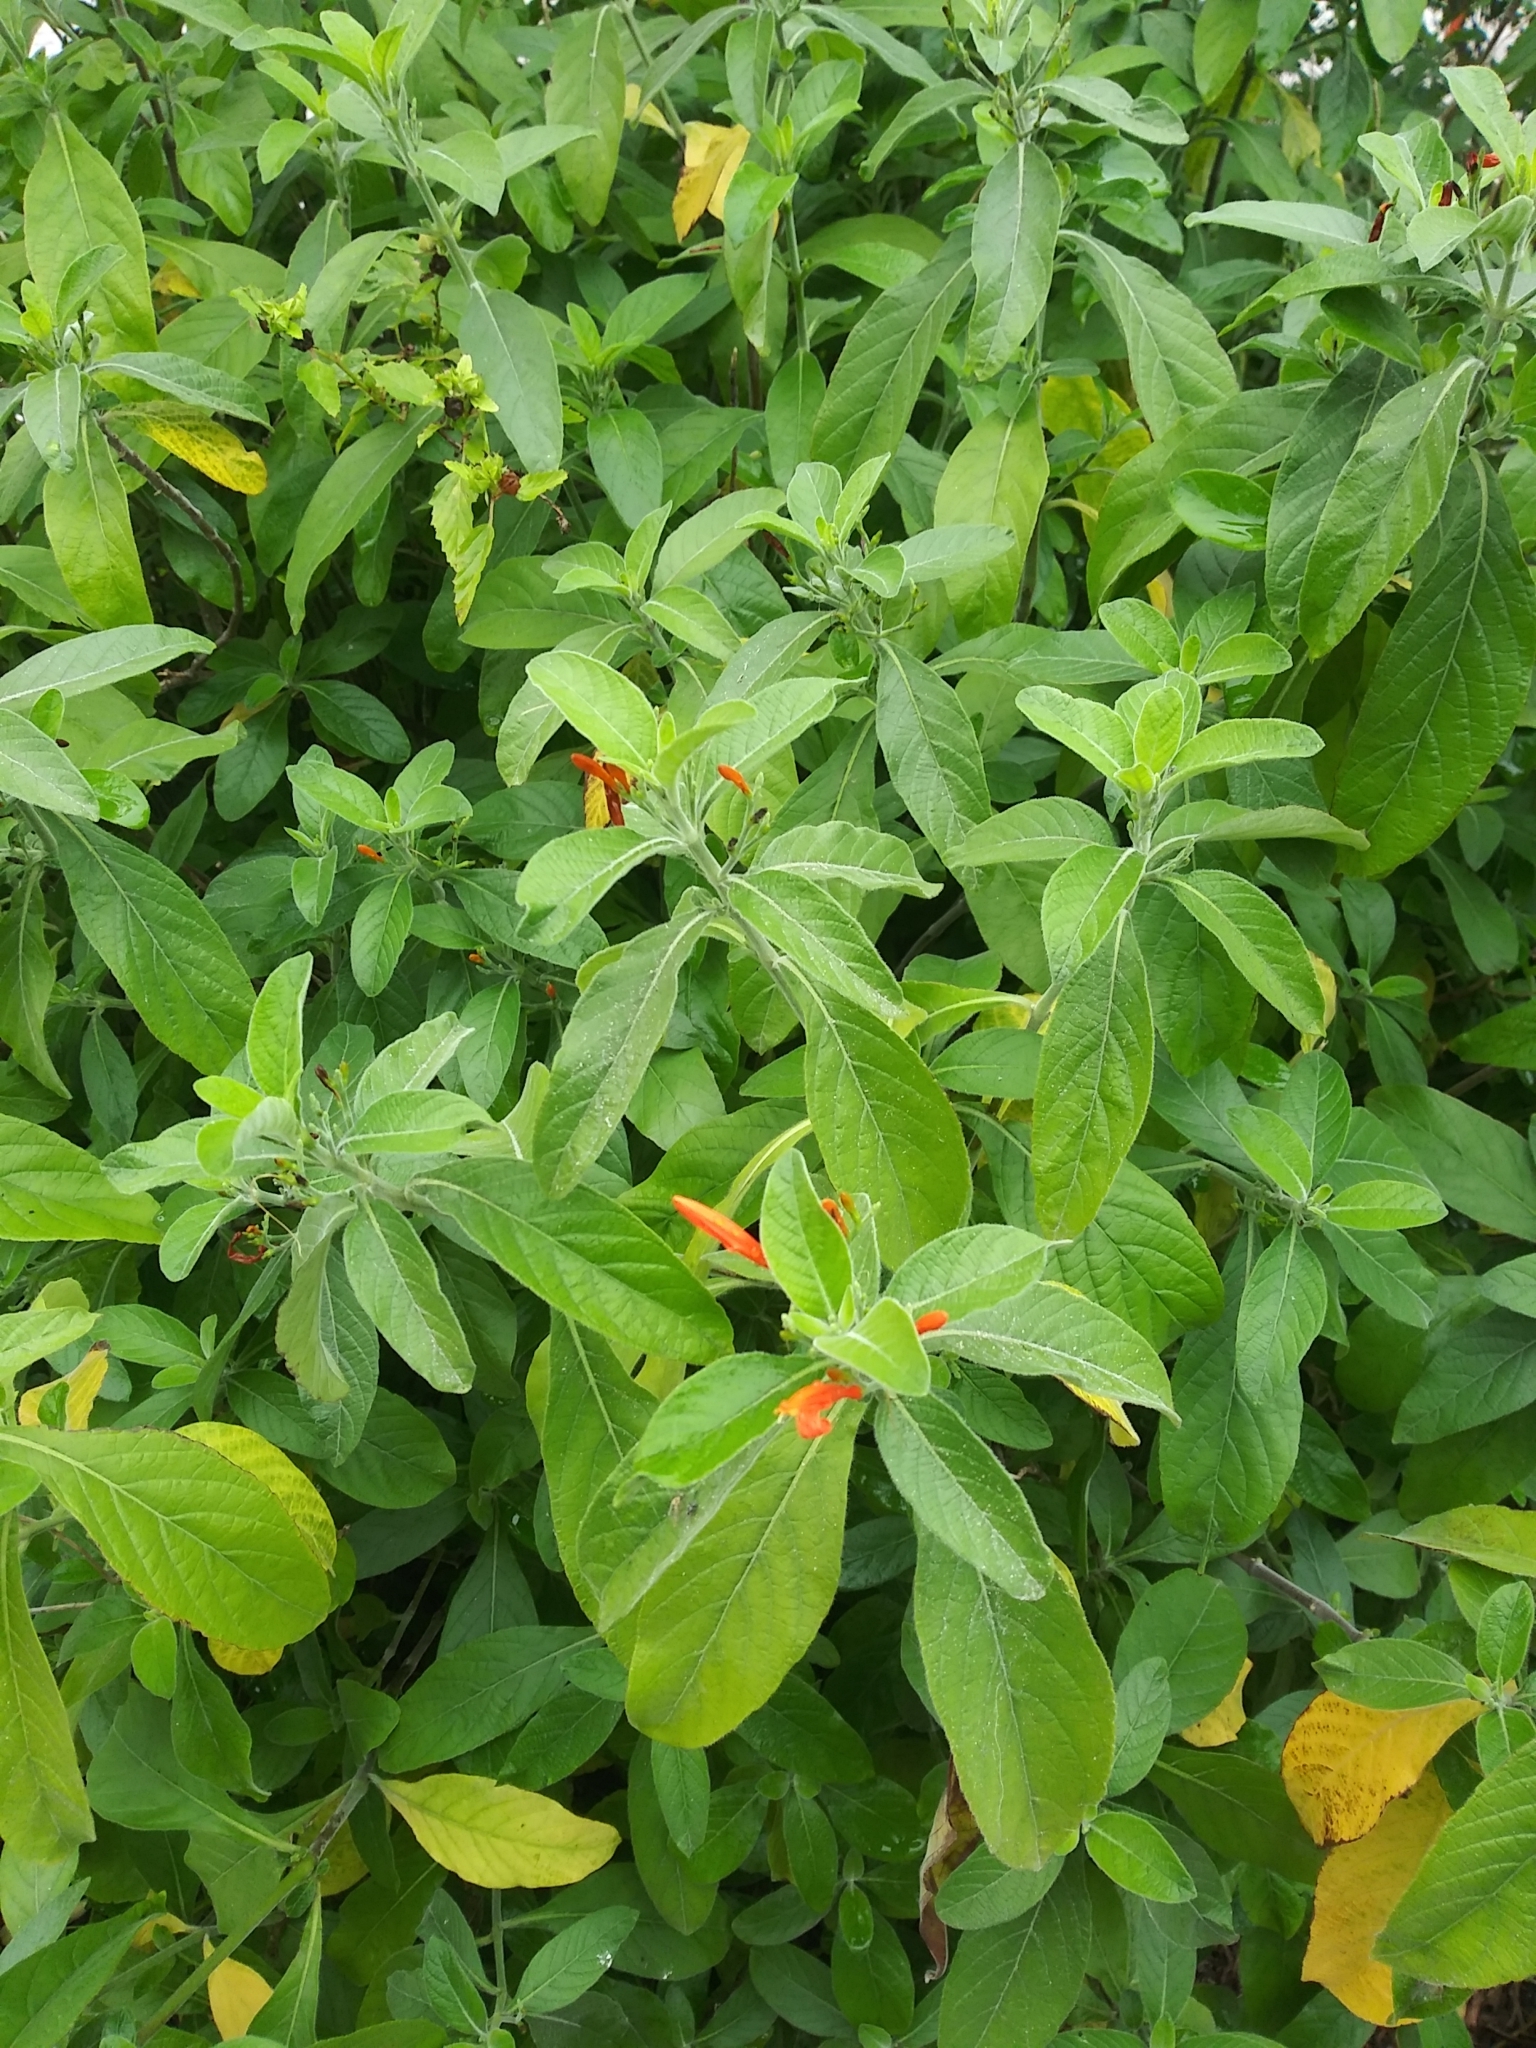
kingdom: Plantae
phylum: Tracheophyta
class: Magnoliopsida
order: Lamiales
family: Acanthaceae
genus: Justicia
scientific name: Justicia spicigera
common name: Mohintli
